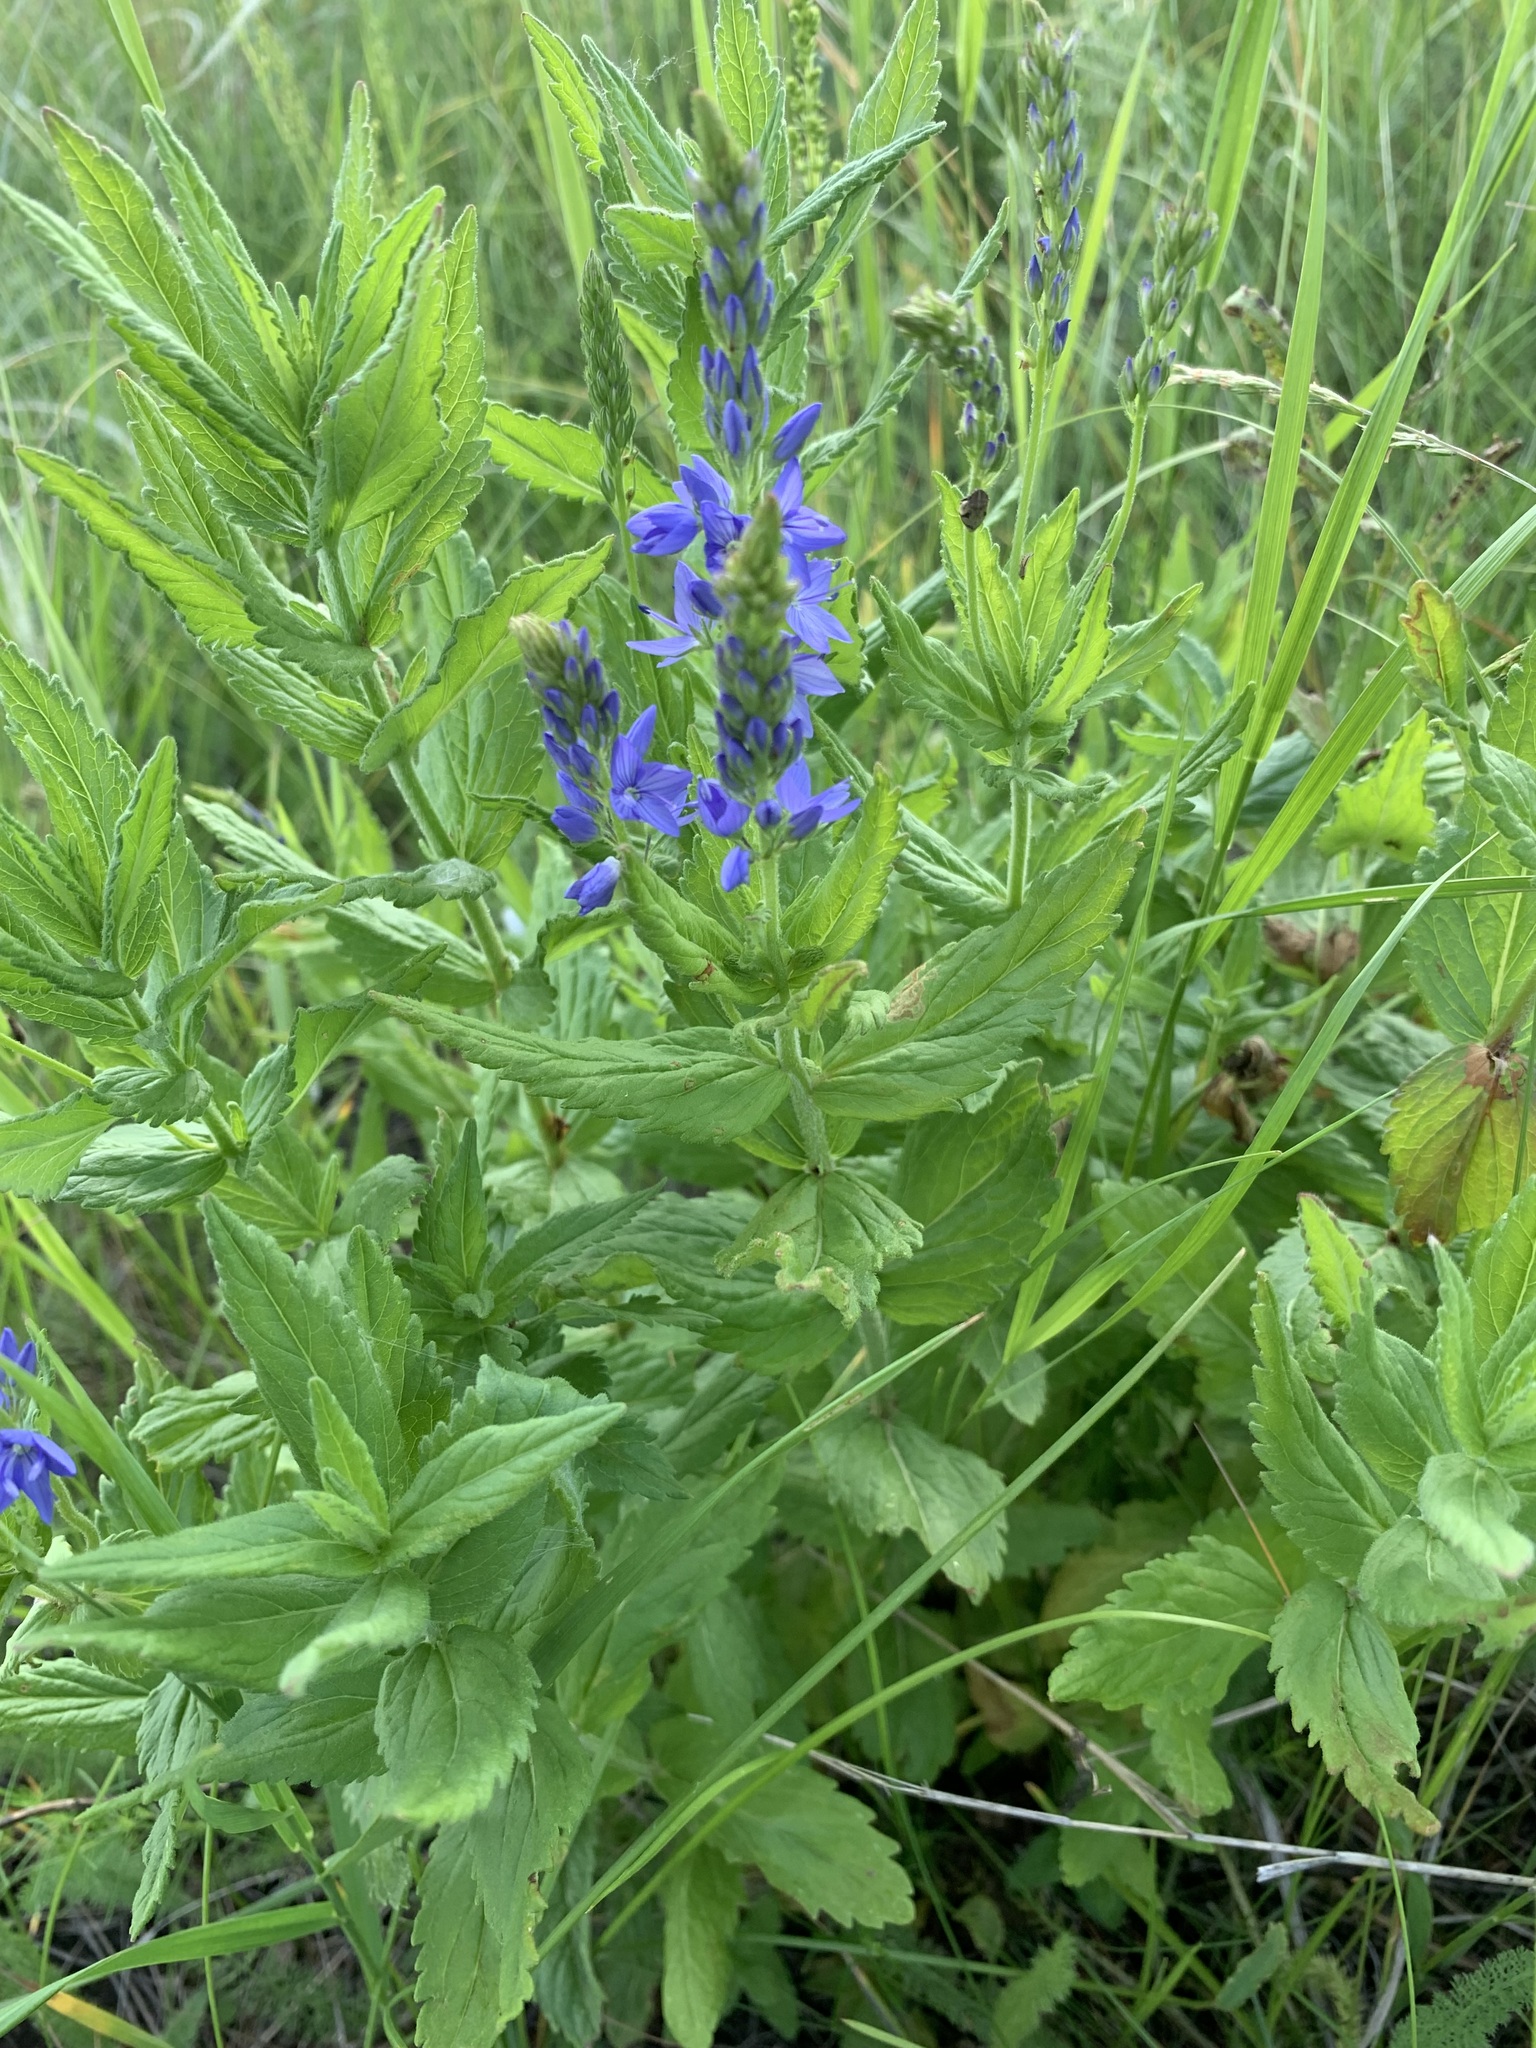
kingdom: Plantae
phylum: Tracheophyta
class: Magnoliopsida
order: Lamiales
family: Plantaginaceae
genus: Veronica
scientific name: Veronica teucrium
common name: Large speedwell
